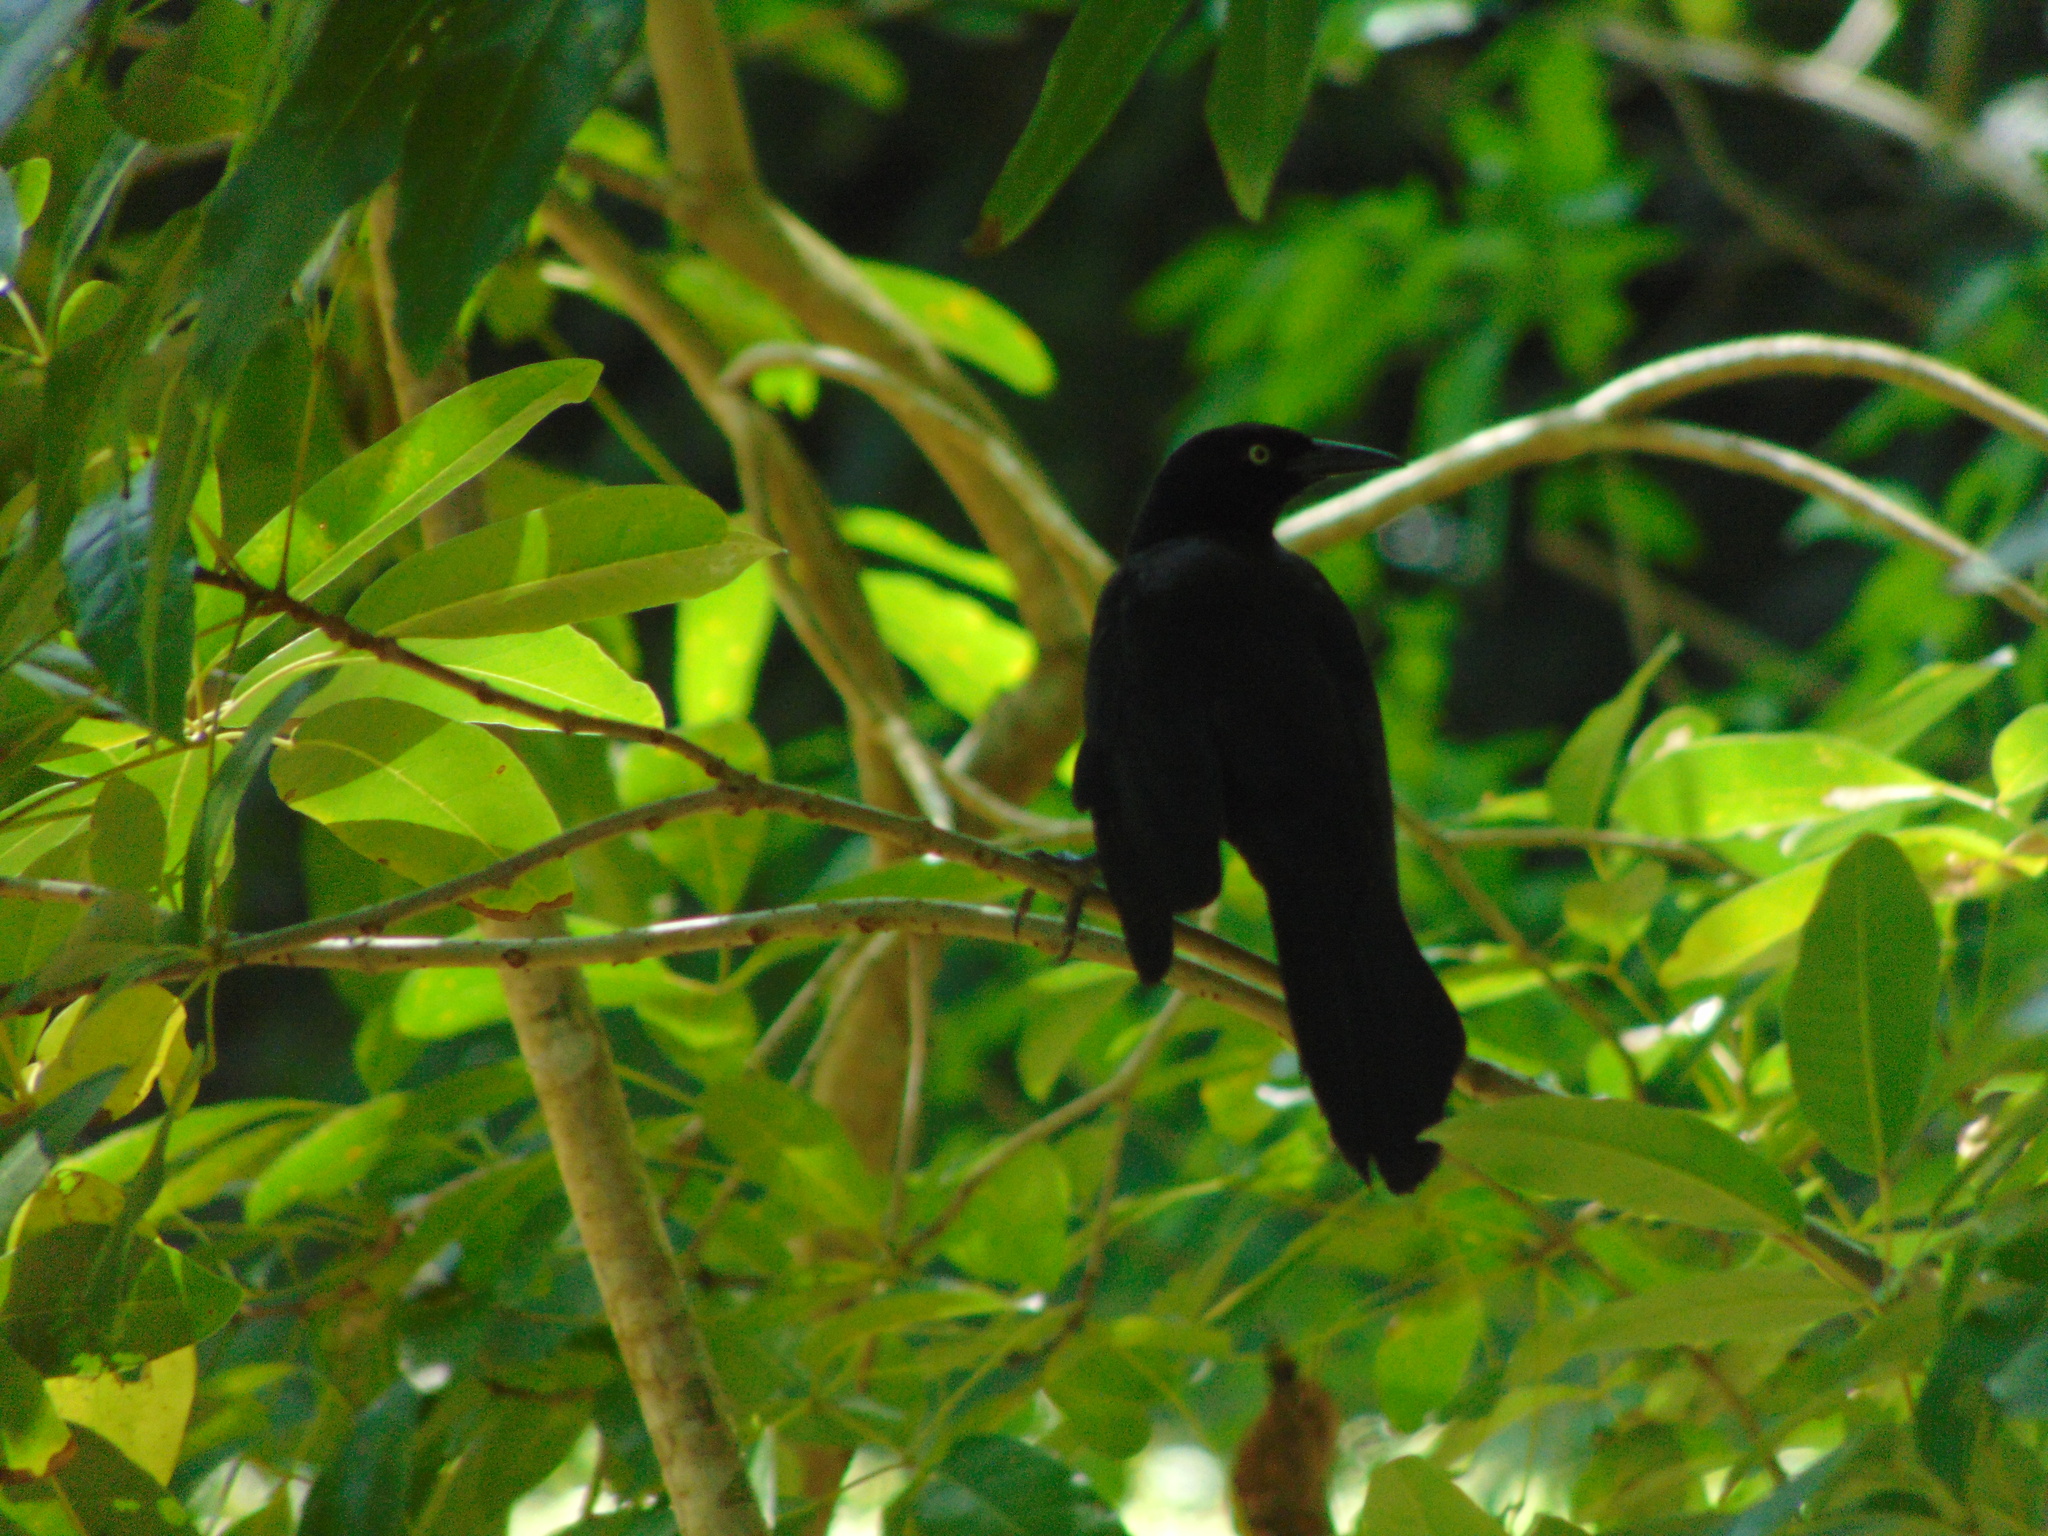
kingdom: Animalia
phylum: Chordata
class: Aves
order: Passeriformes
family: Icteridae
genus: Quiscalus
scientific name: Quiscalus niger
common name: Greater antillean grackle
